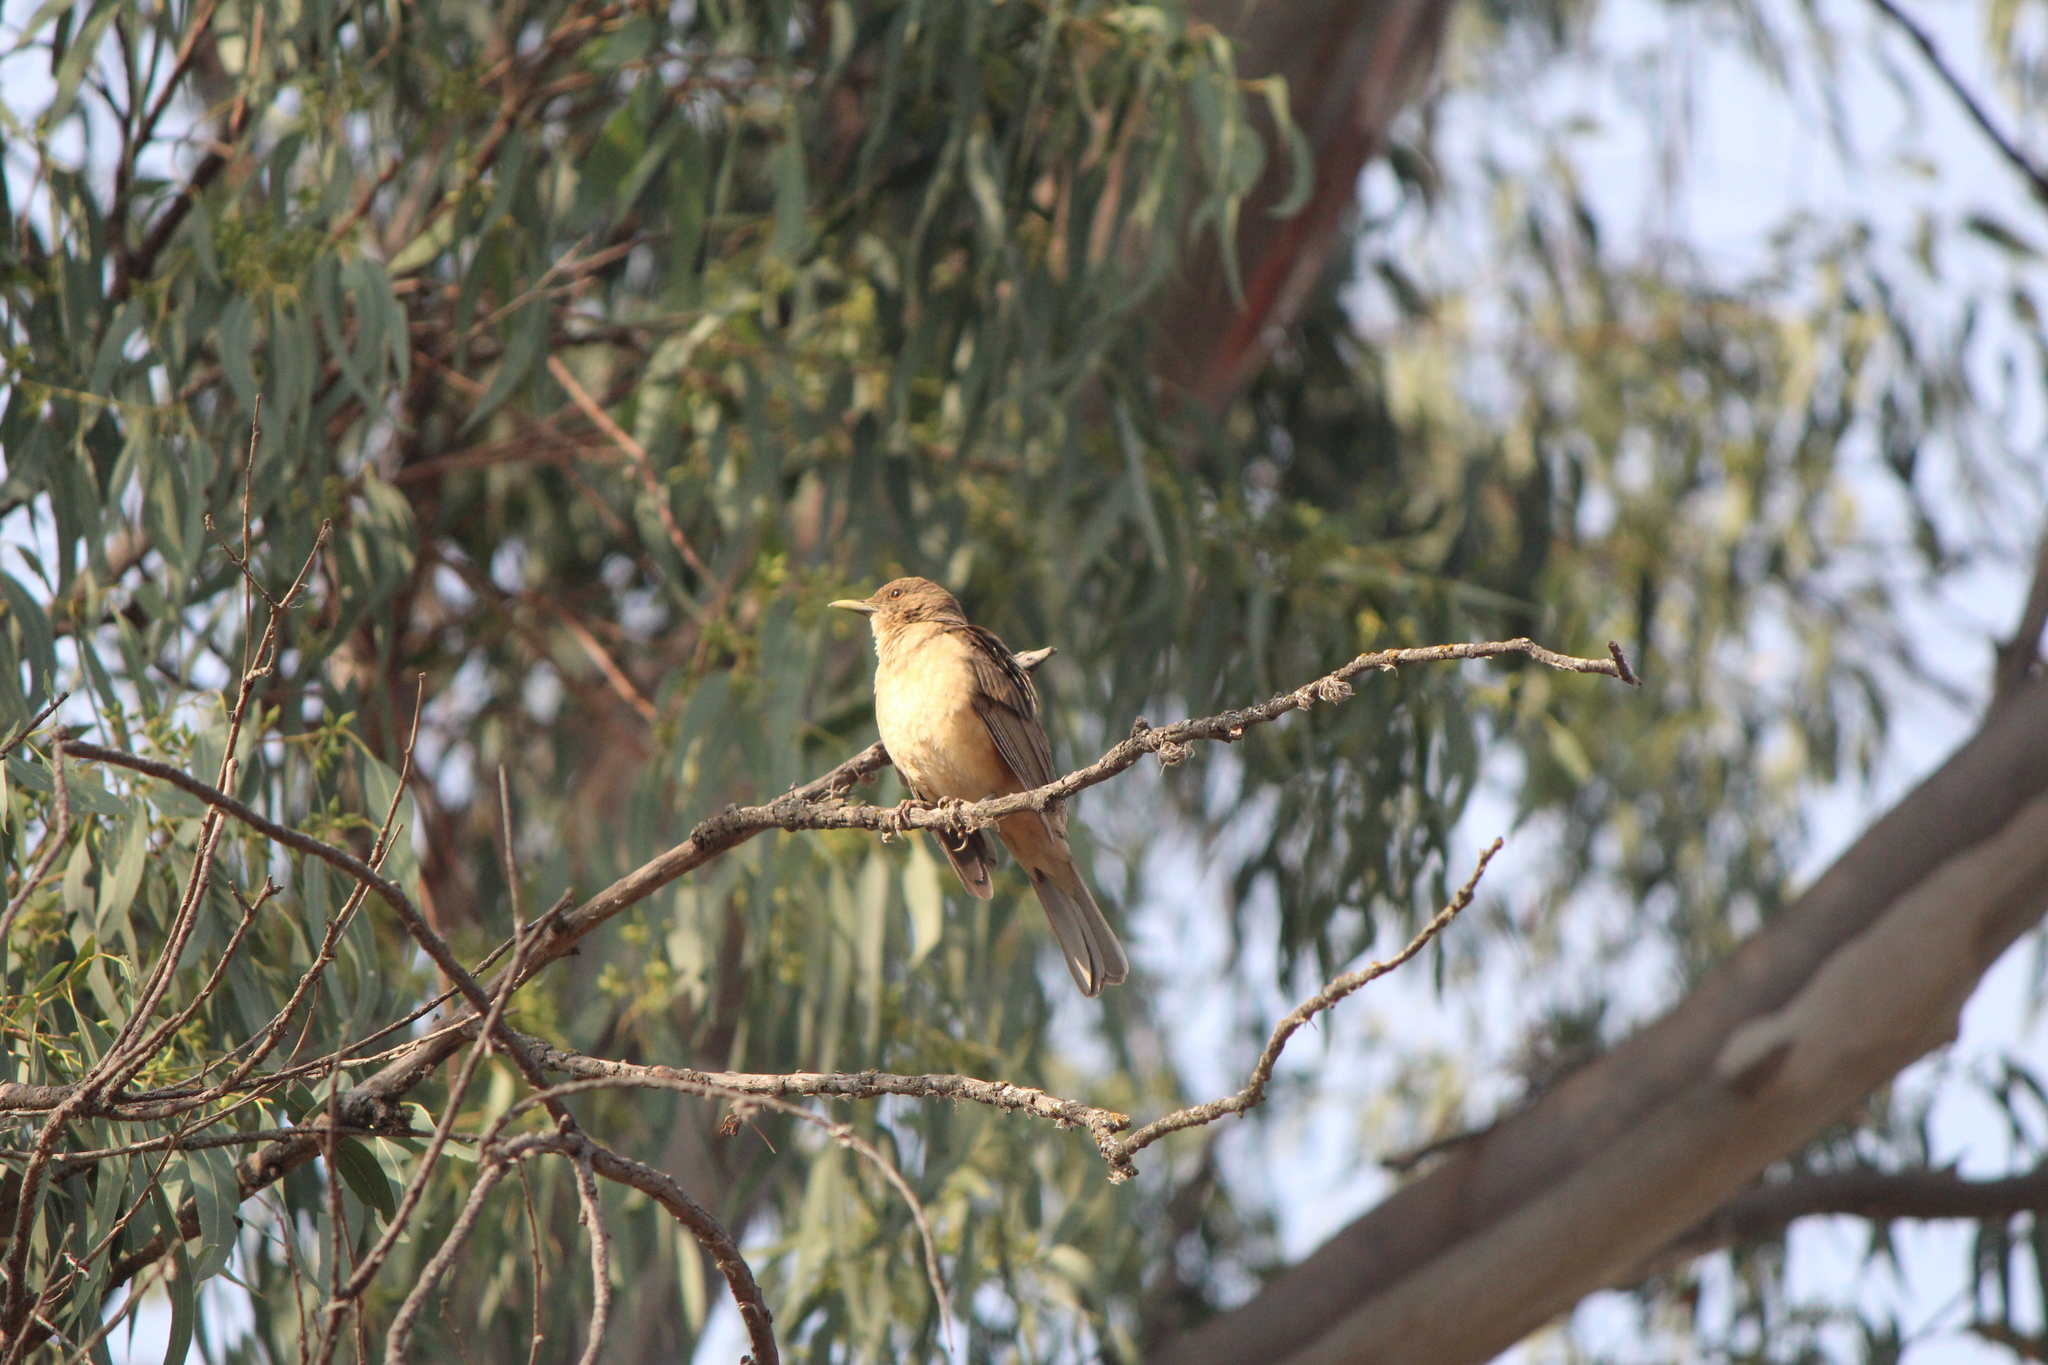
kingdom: Animalia
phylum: Chordata
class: Aves
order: Passeriformes
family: Turdidae
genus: Turdus
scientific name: Turdus grayi
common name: Clay-colored thrush
